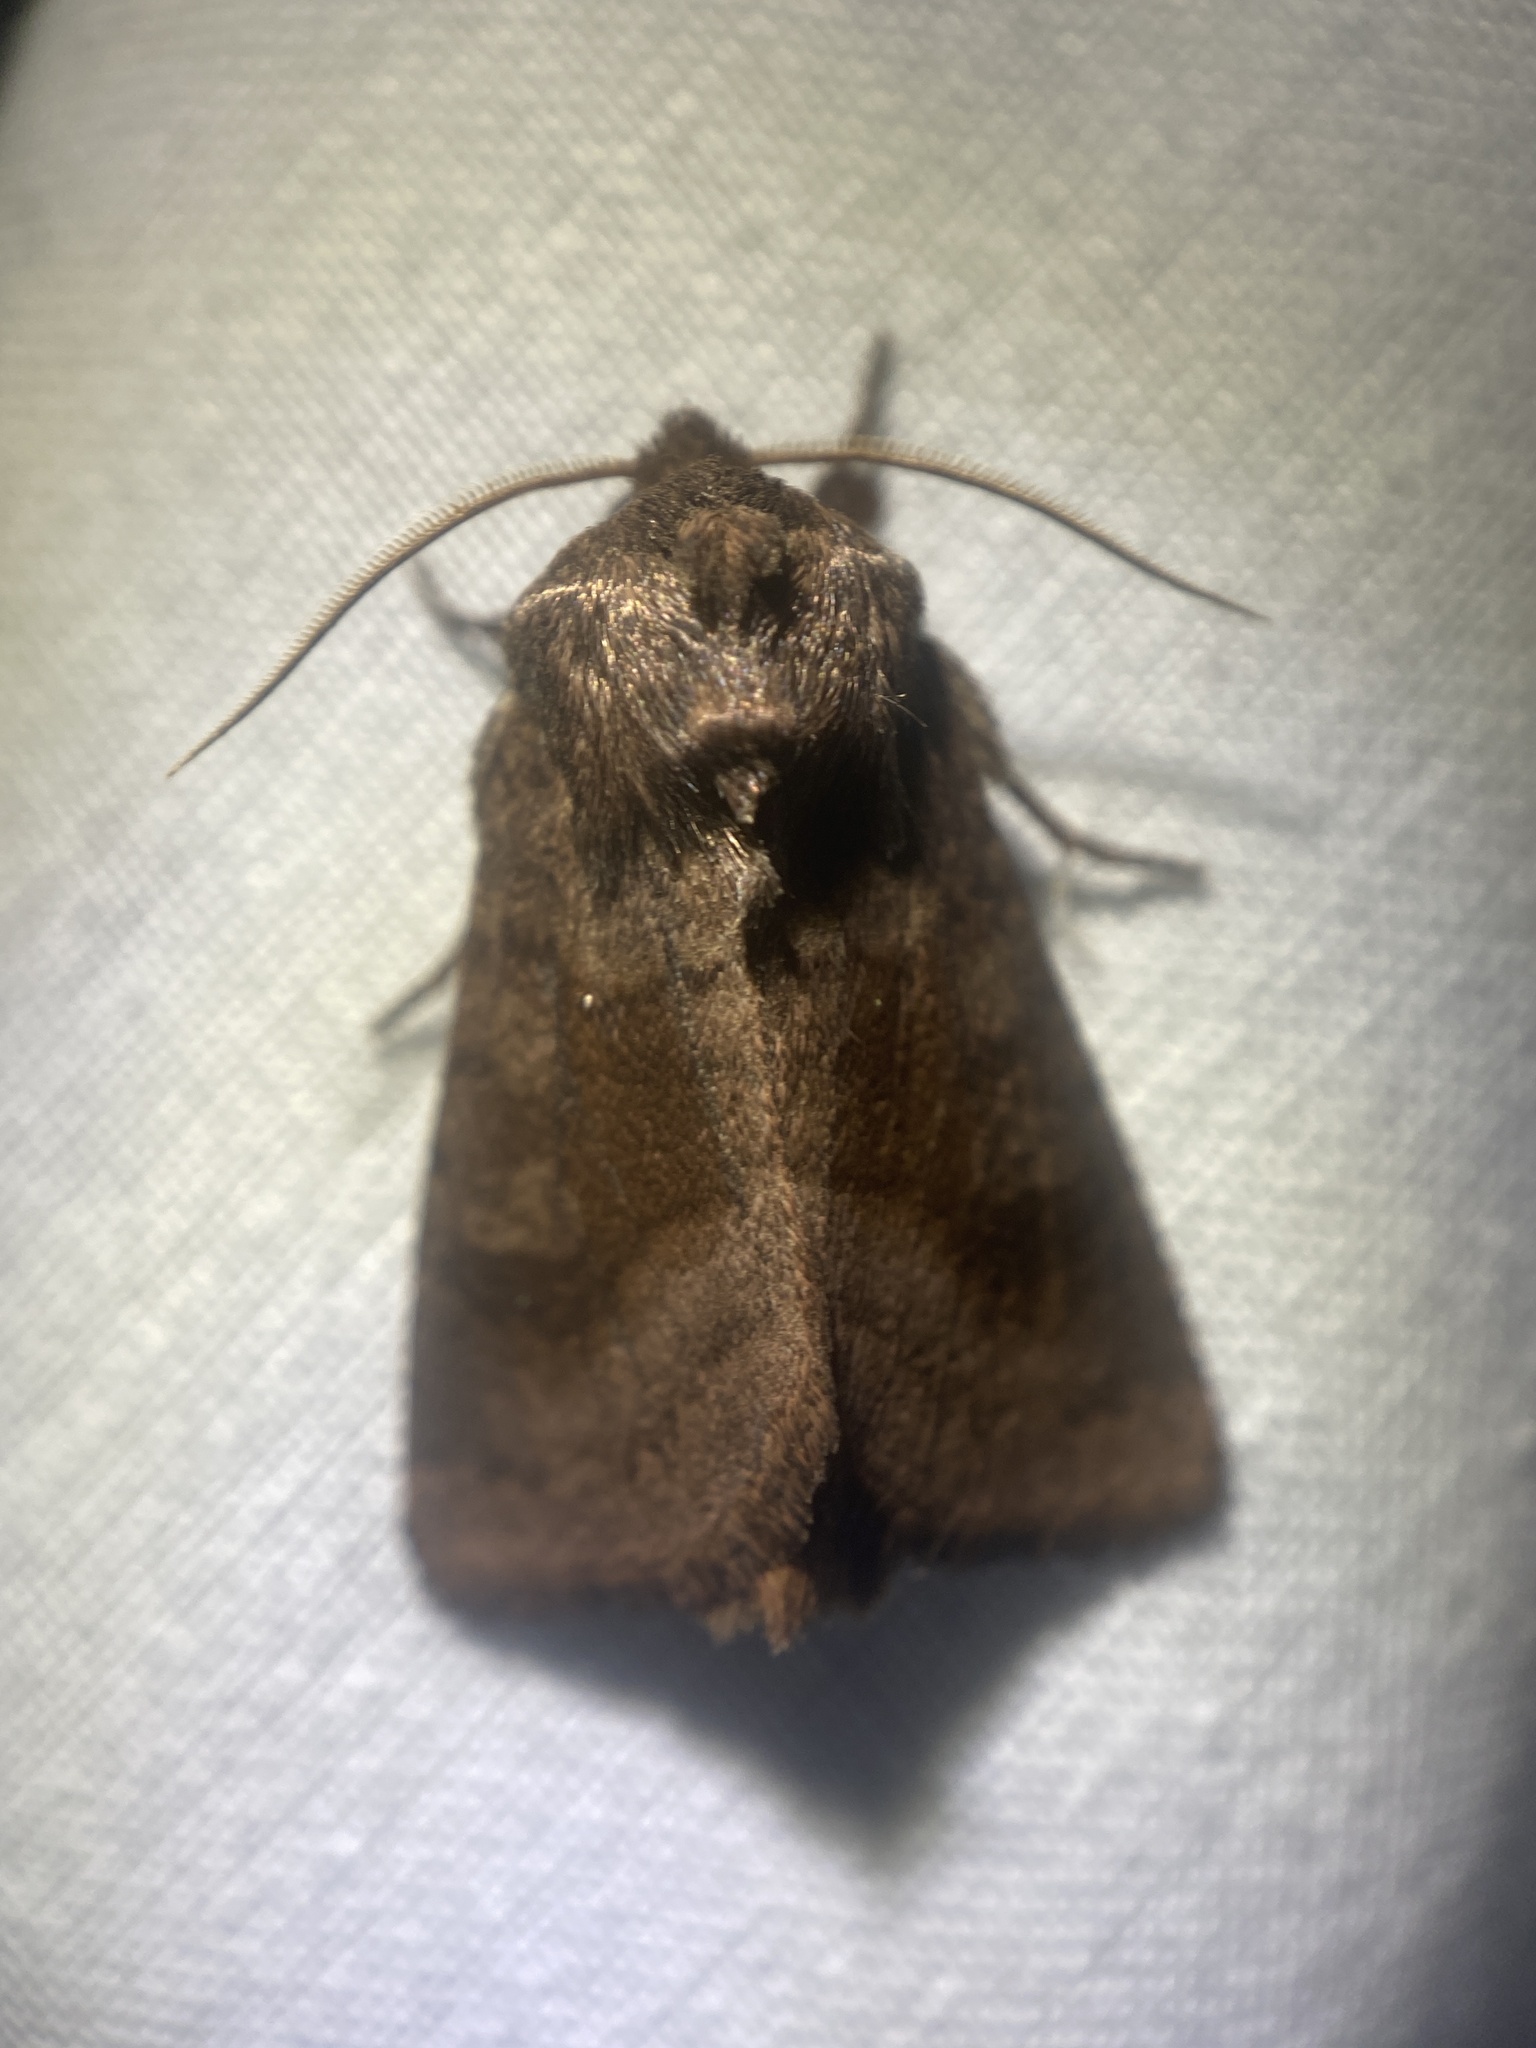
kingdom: Animalia
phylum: Arthropoda
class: Insecta
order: Lepidoptera
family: Noctuidae
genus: Nephelodes
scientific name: Nephelodes minians
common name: Bronzed cutworm
